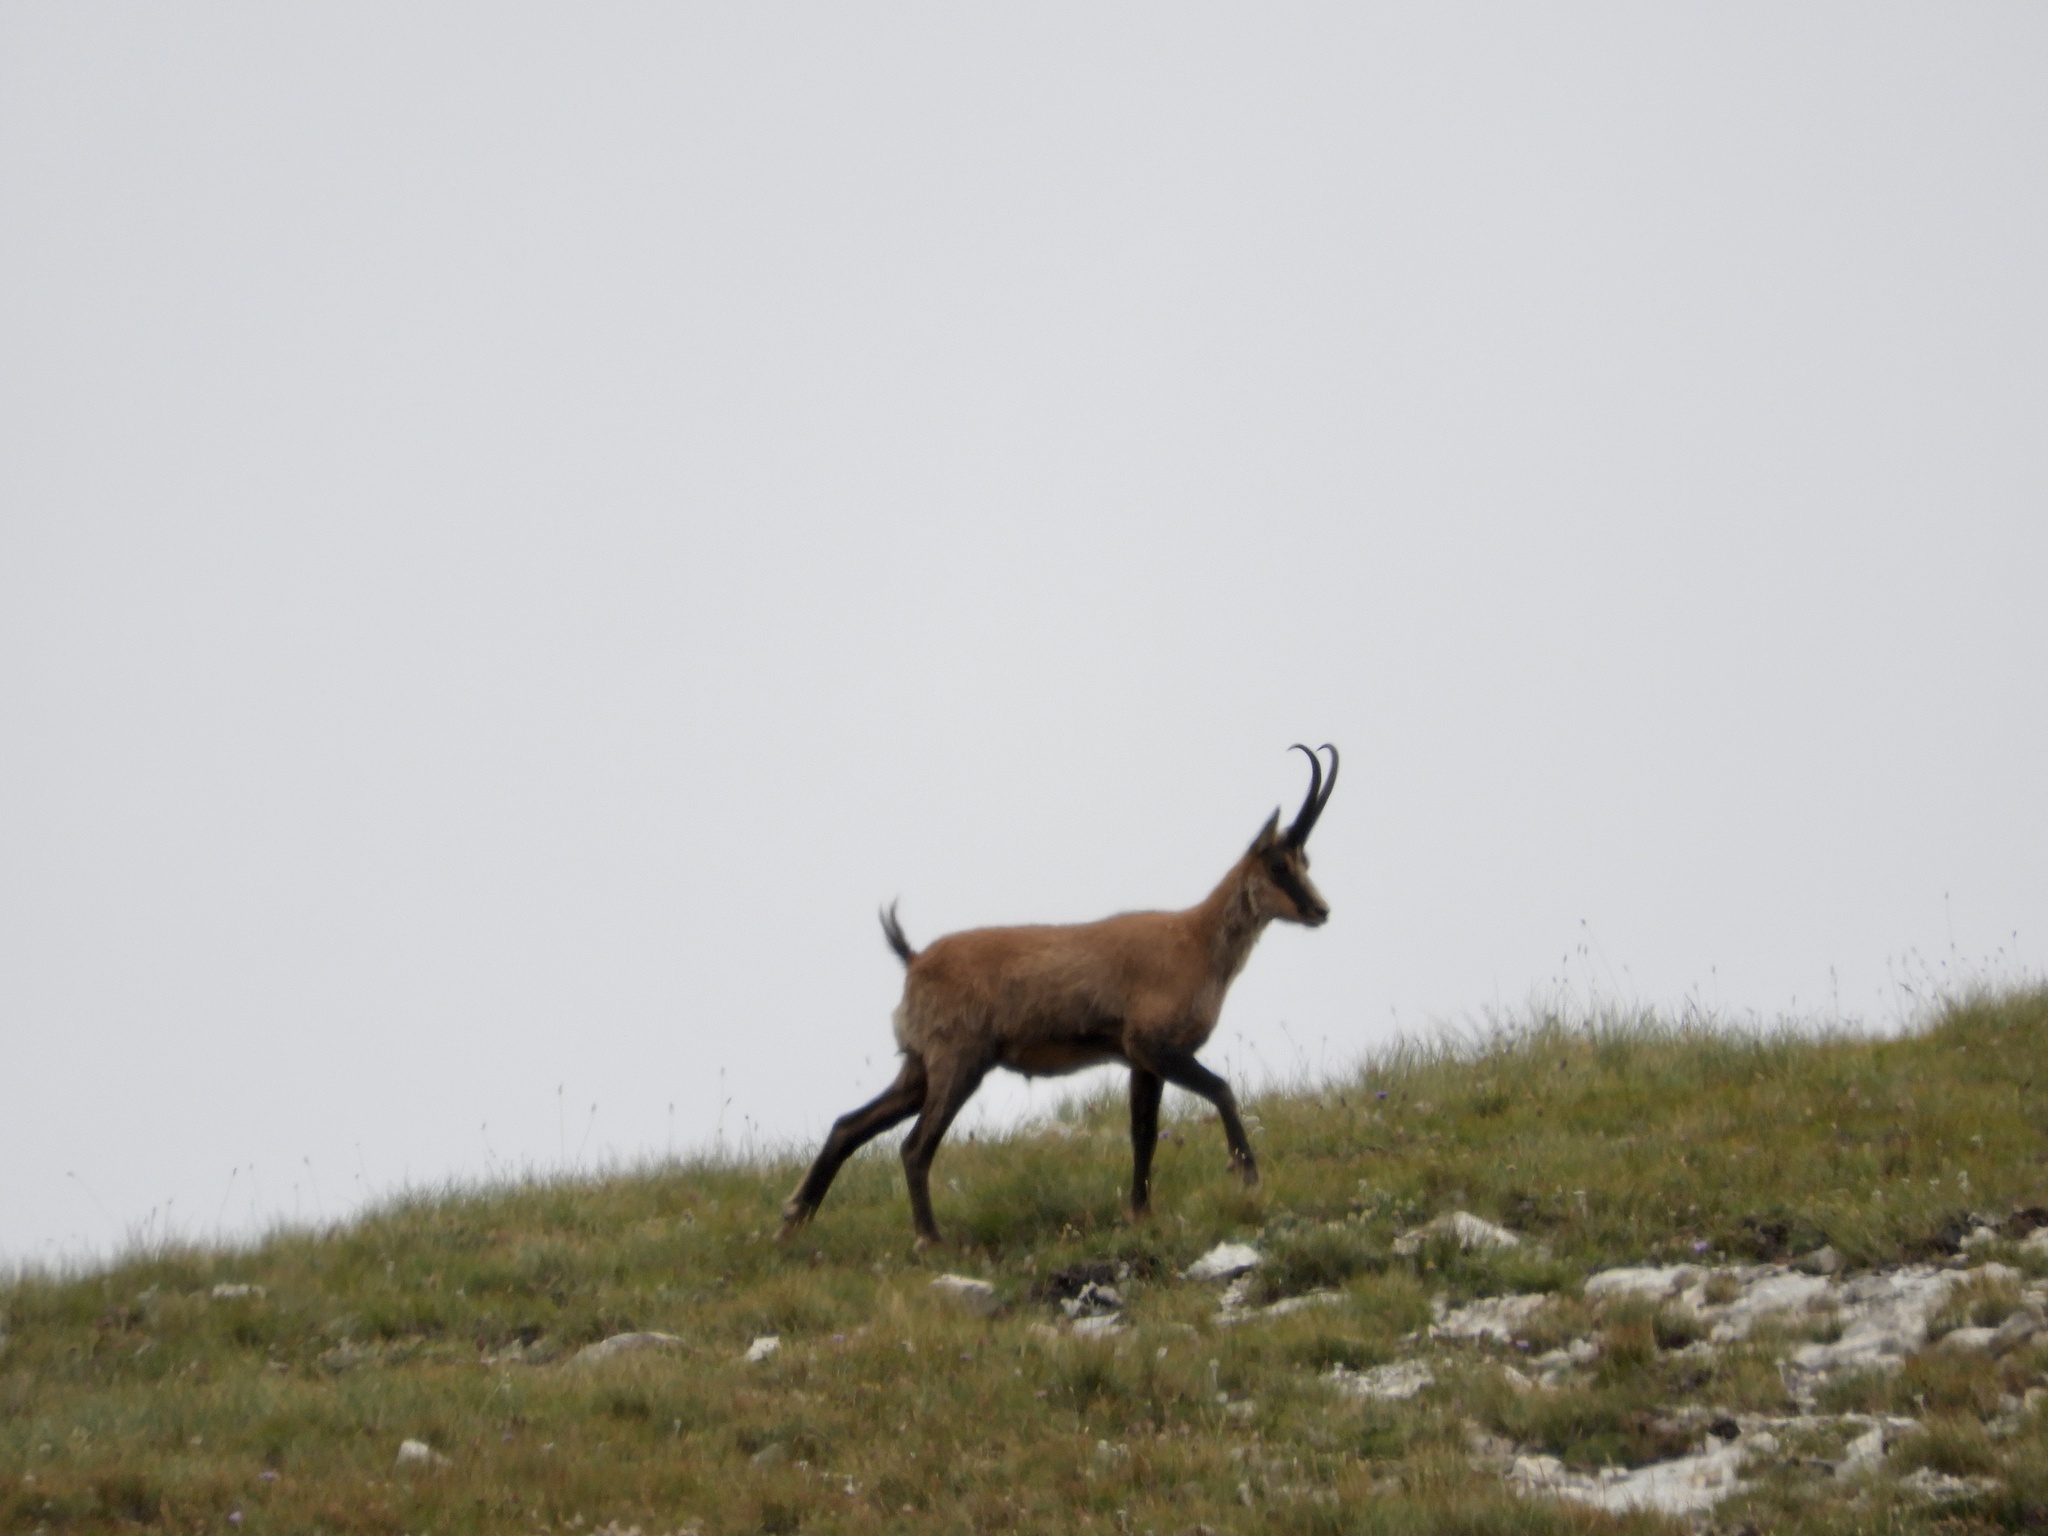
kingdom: Animalia
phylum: Chordata
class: Mammalia
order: Artiodactyla
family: Bovidae
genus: Rupicapra
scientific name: Rupicapra pyrenaica
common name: Pyrenean chamois
